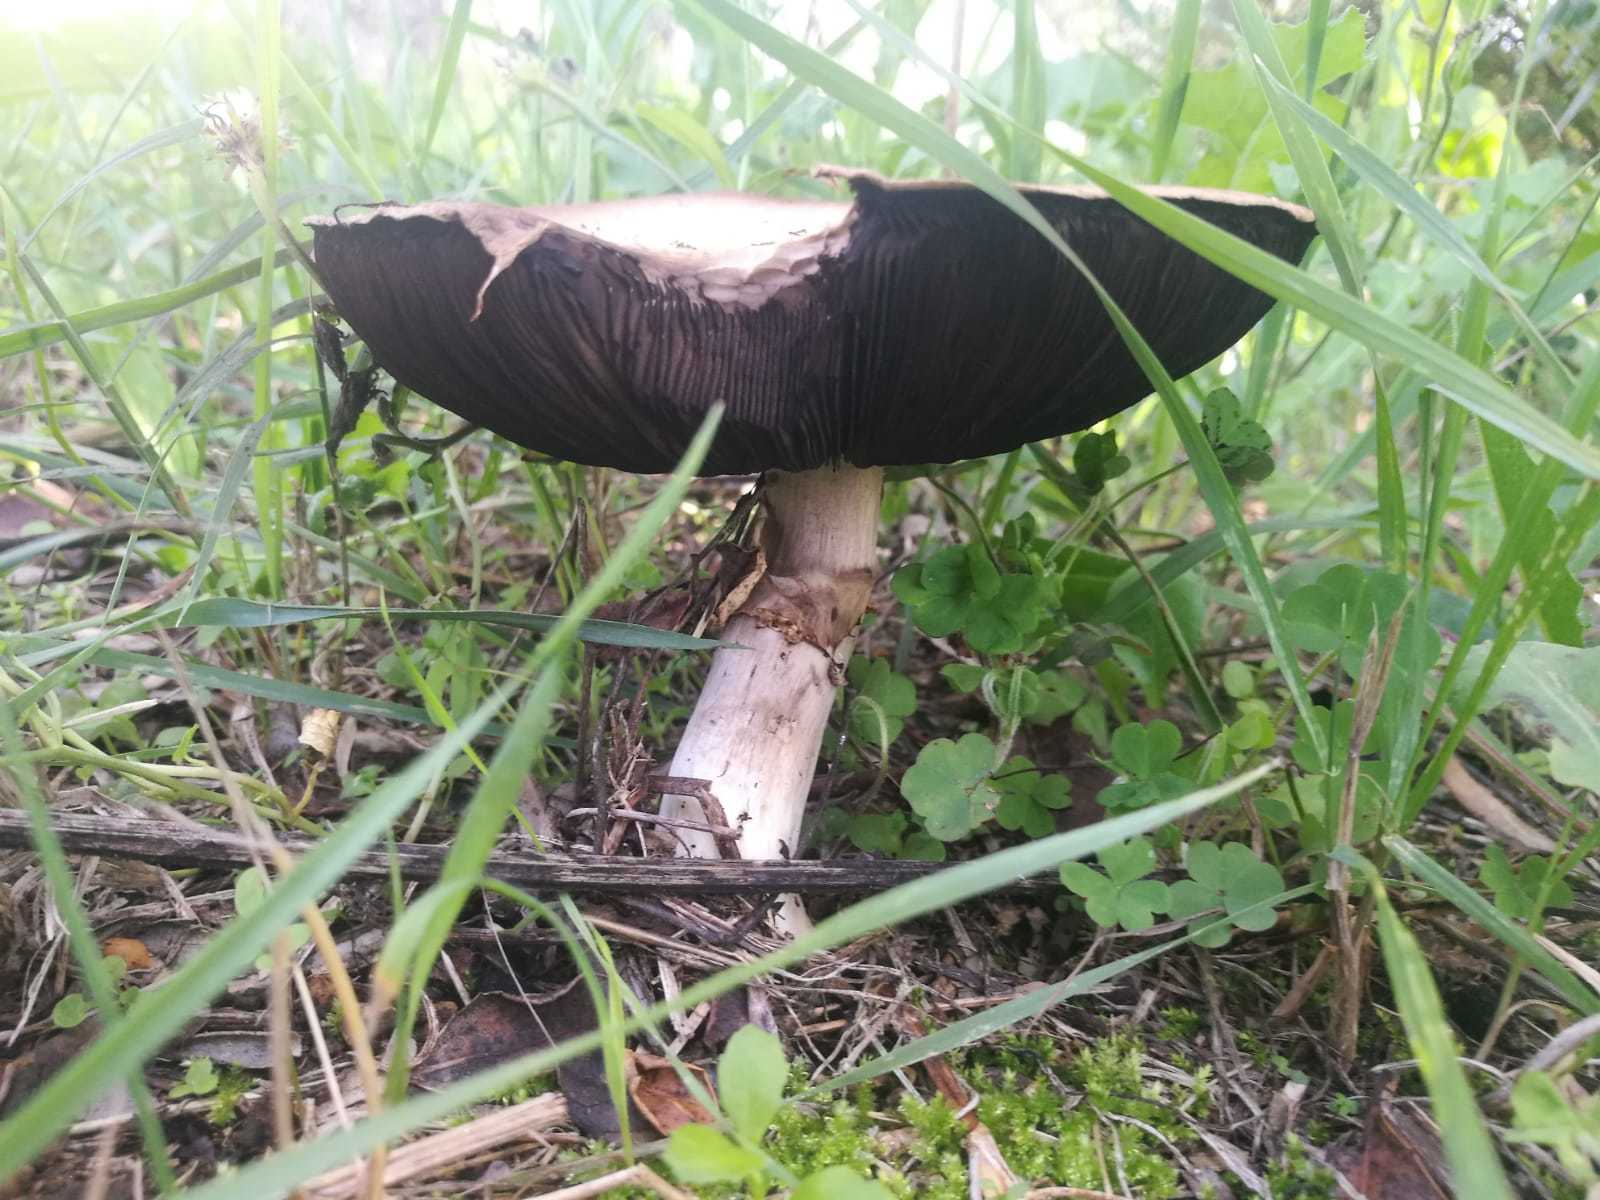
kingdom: Fungi
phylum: Basidiomycota
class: Agaricomycetes
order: Agaricales
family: Agaricaceae
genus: Agaricus
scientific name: Agaricus campestris
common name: Field mushroom
